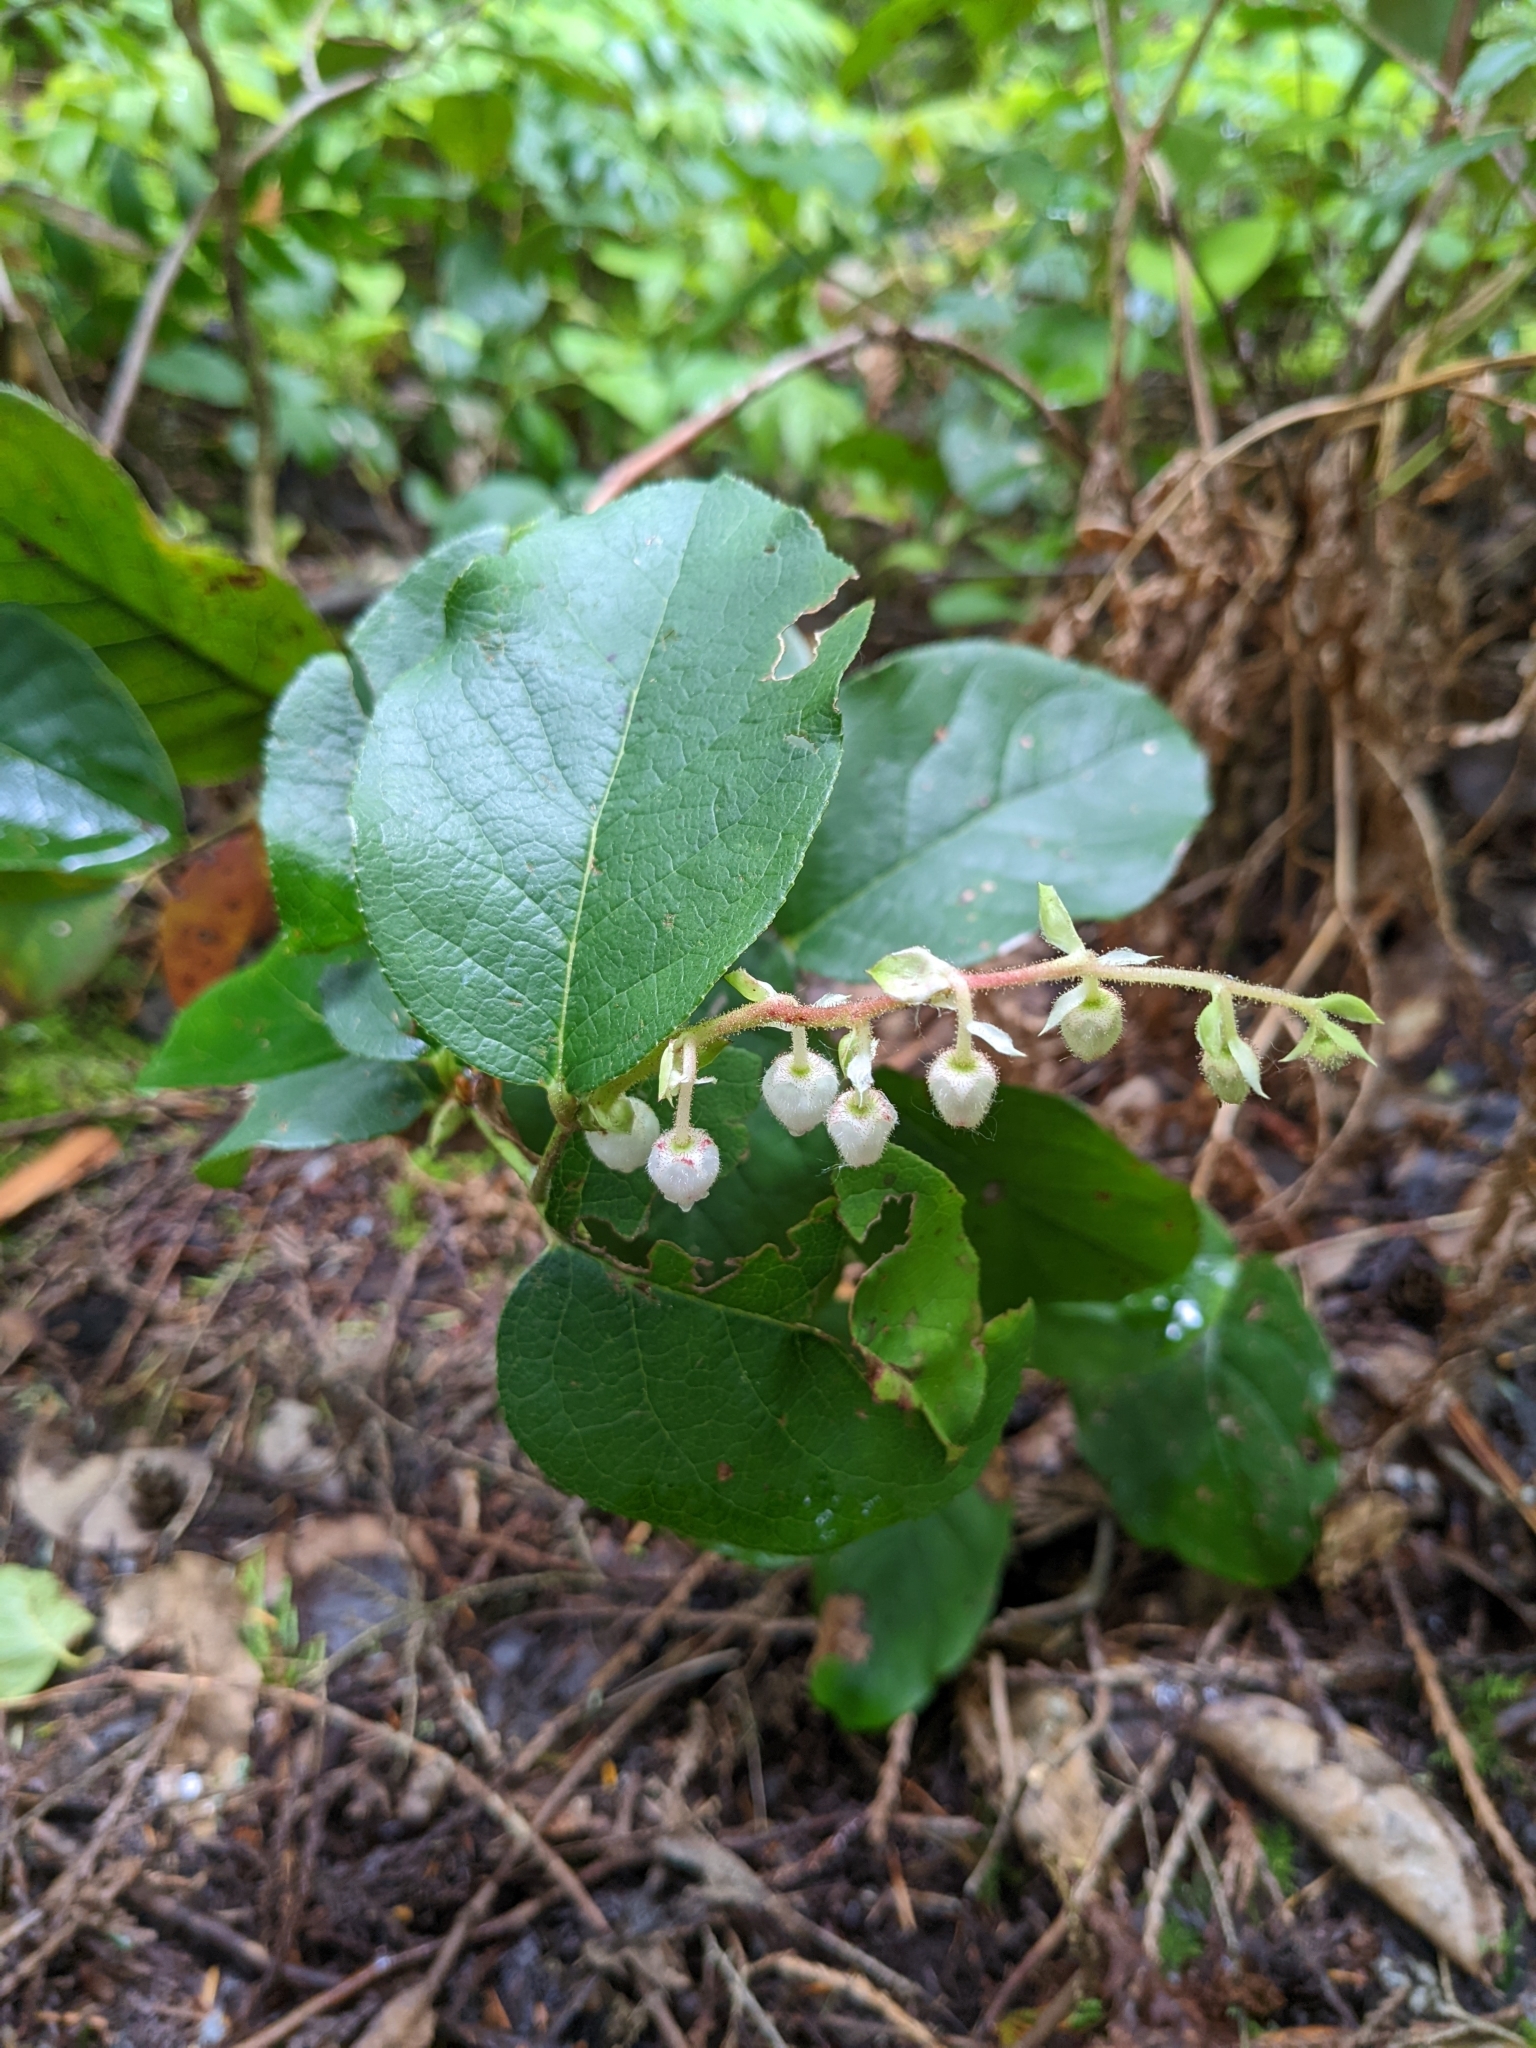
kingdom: Plantae
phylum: Tracheophyta
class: Magnoliopsida
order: Ericales
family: Ericaceae
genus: Gaultheria
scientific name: Gaultheria shallon
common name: Shallon
